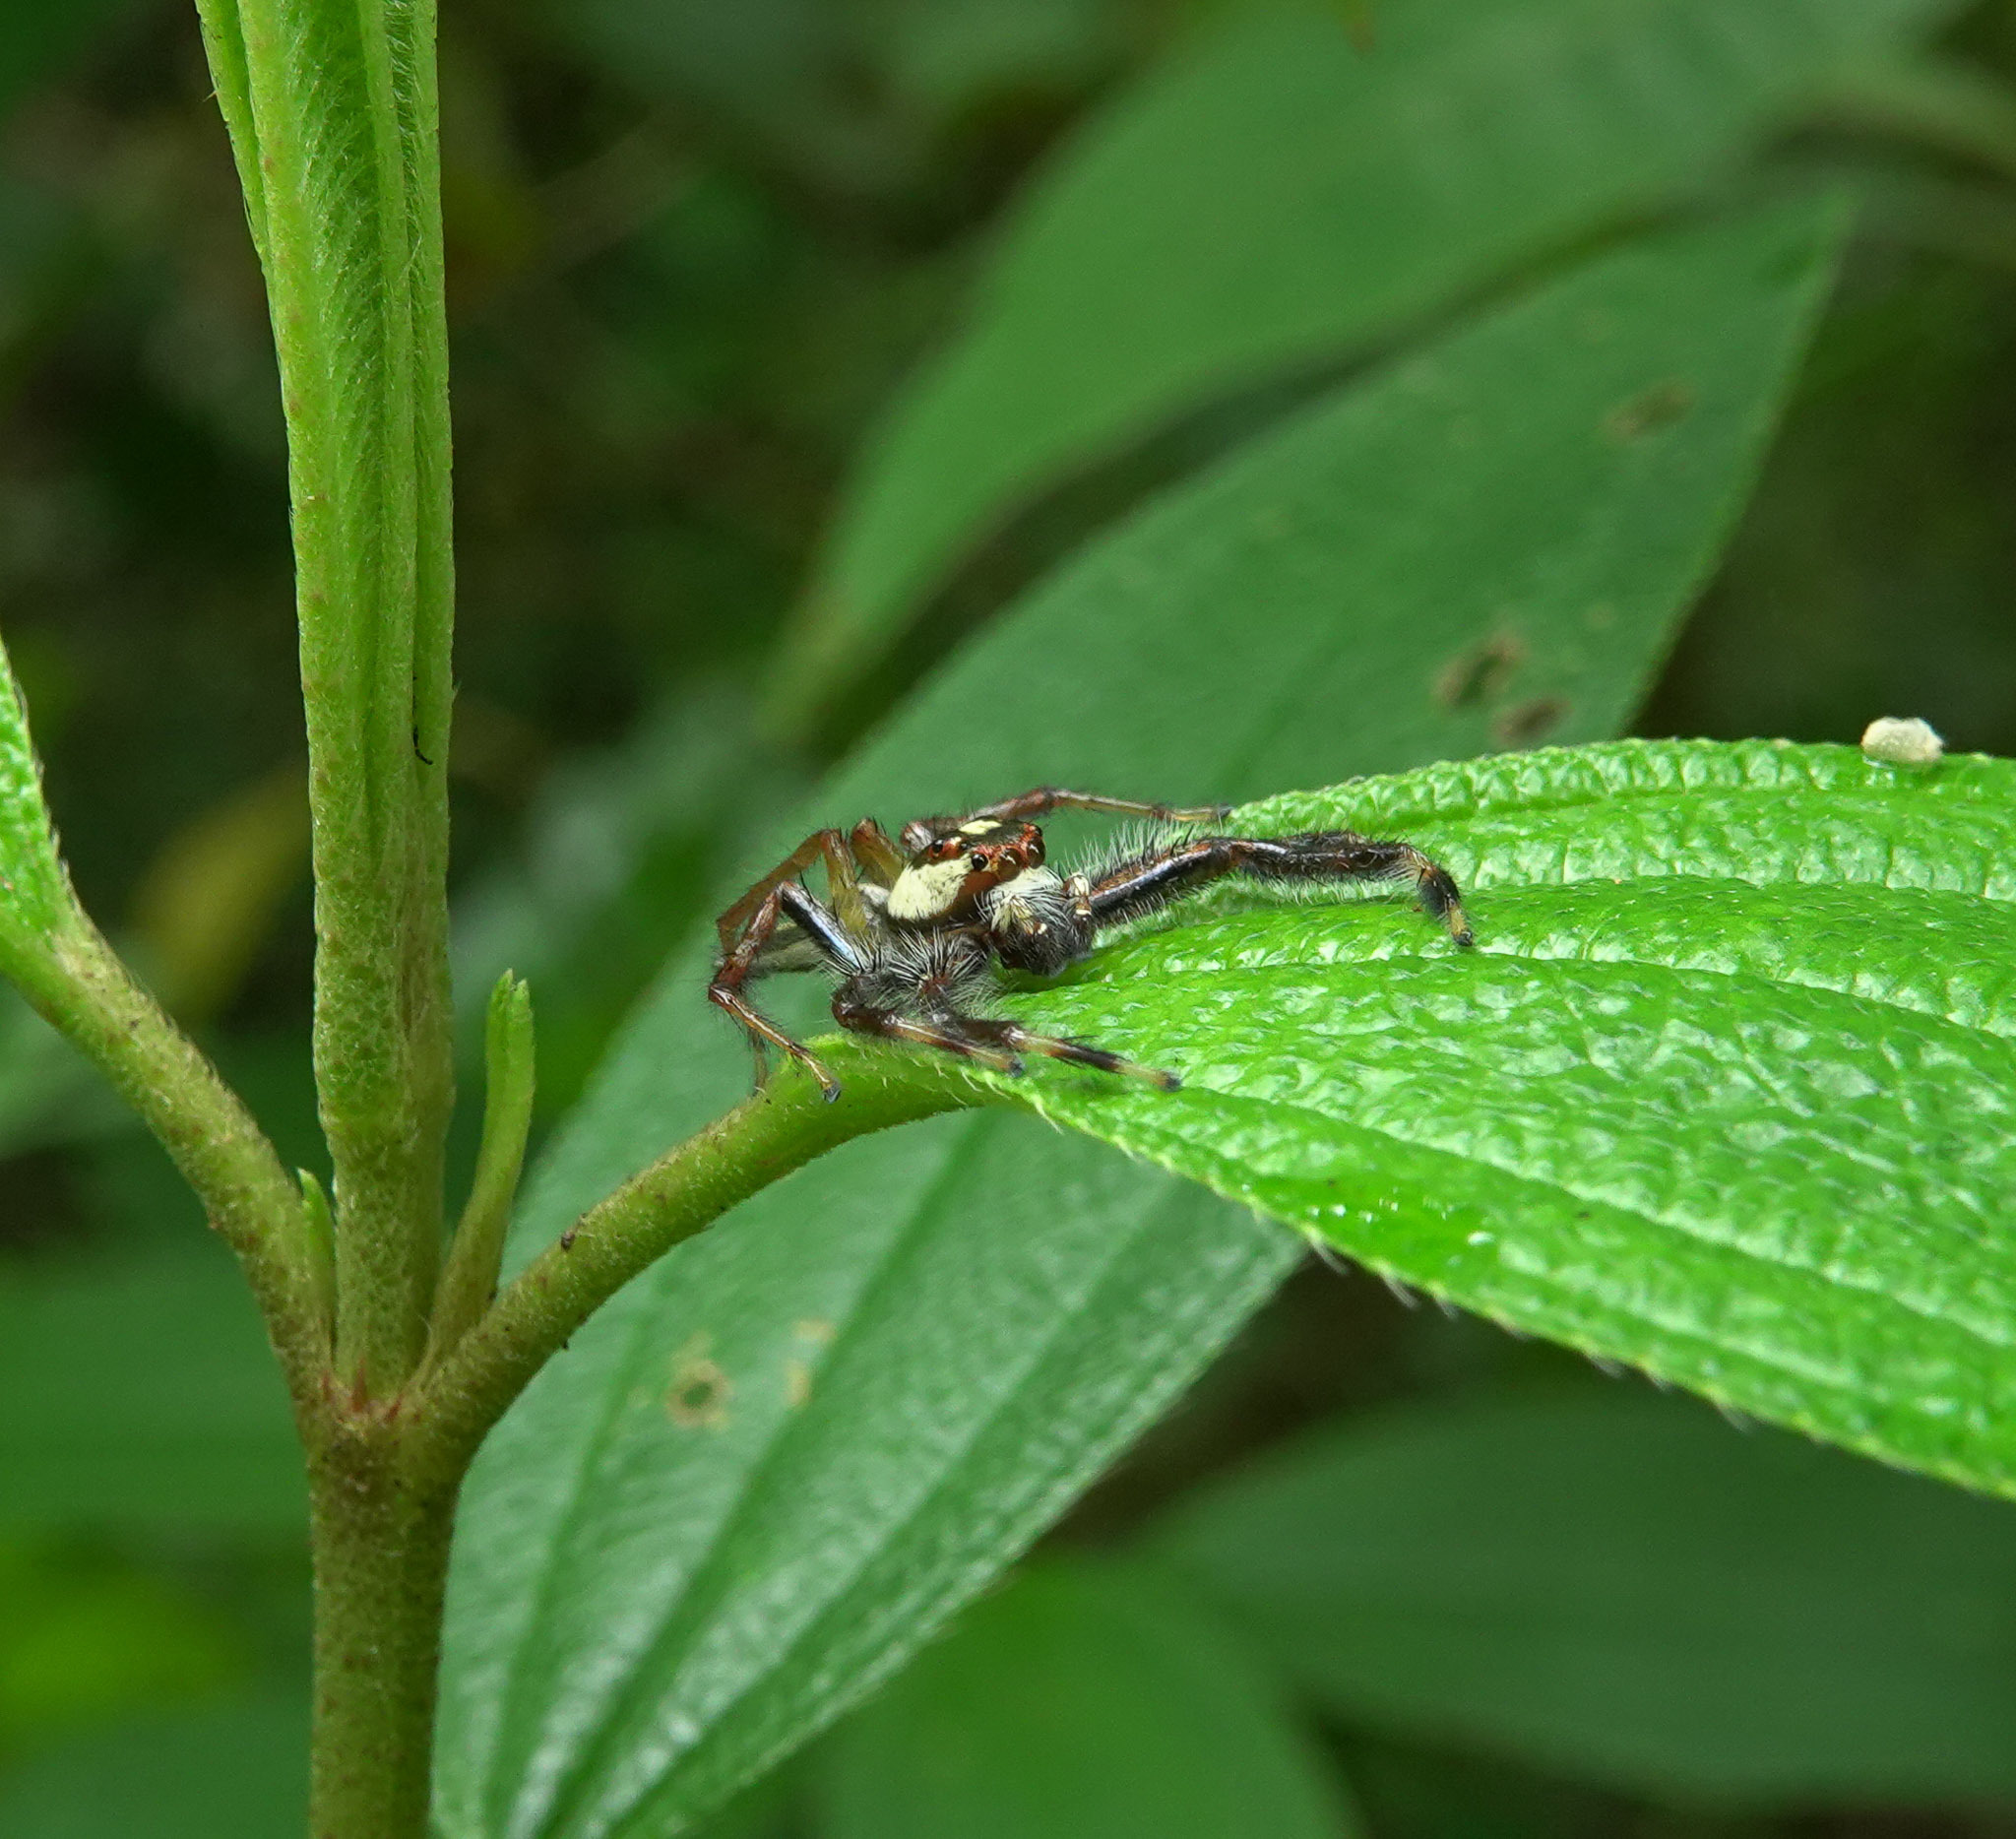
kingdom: Animalia
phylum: Arthropoda
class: Arachnida
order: Araneae
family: Salticidae
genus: Telamonia
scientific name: Telamonia dimidiata
